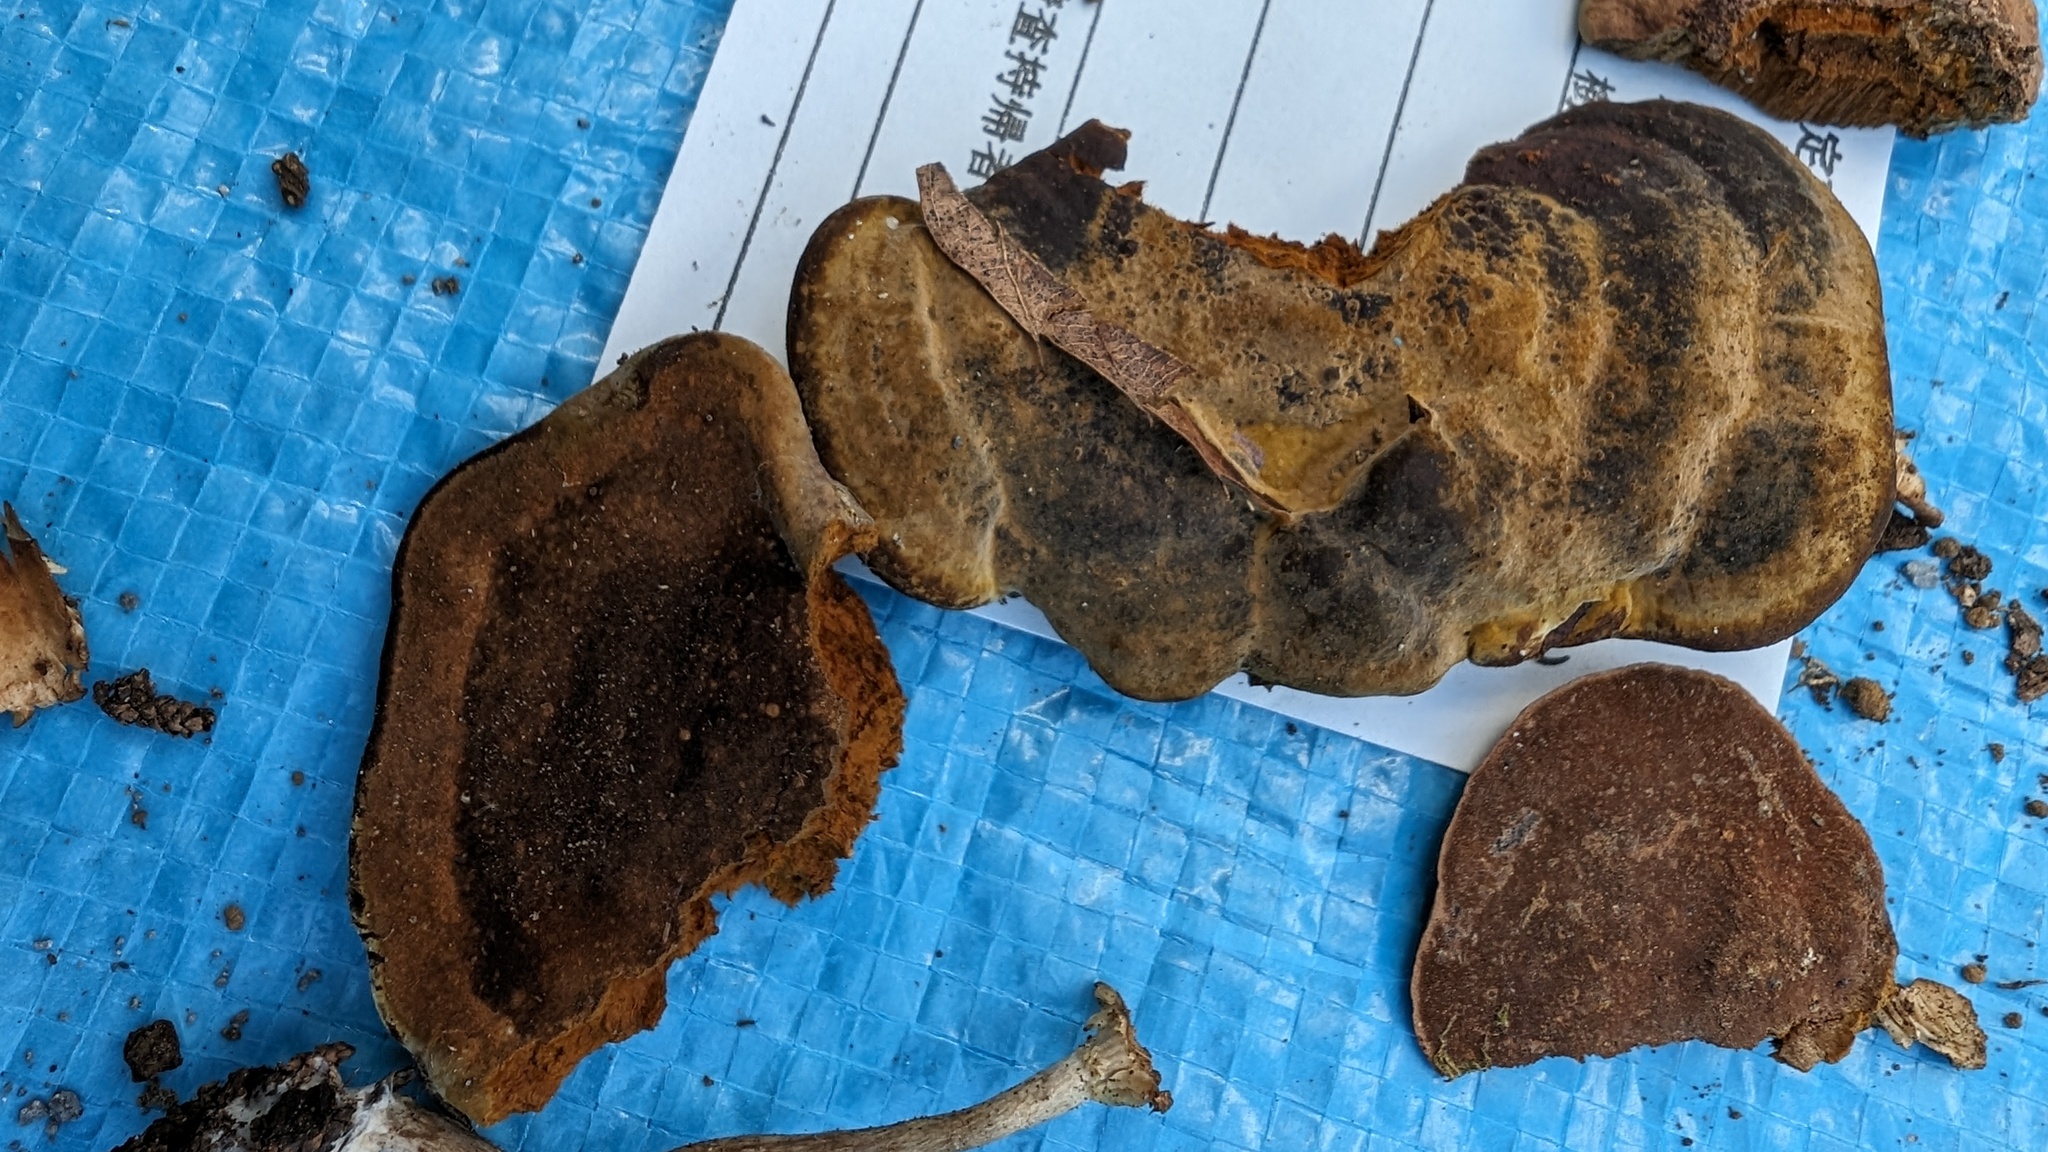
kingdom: Fungi
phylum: Basidiomycota
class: Agaricomycetes
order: Hymenochaetales
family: Hymenochaetaceae
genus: Phellinus
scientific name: Phellinus gilvus
